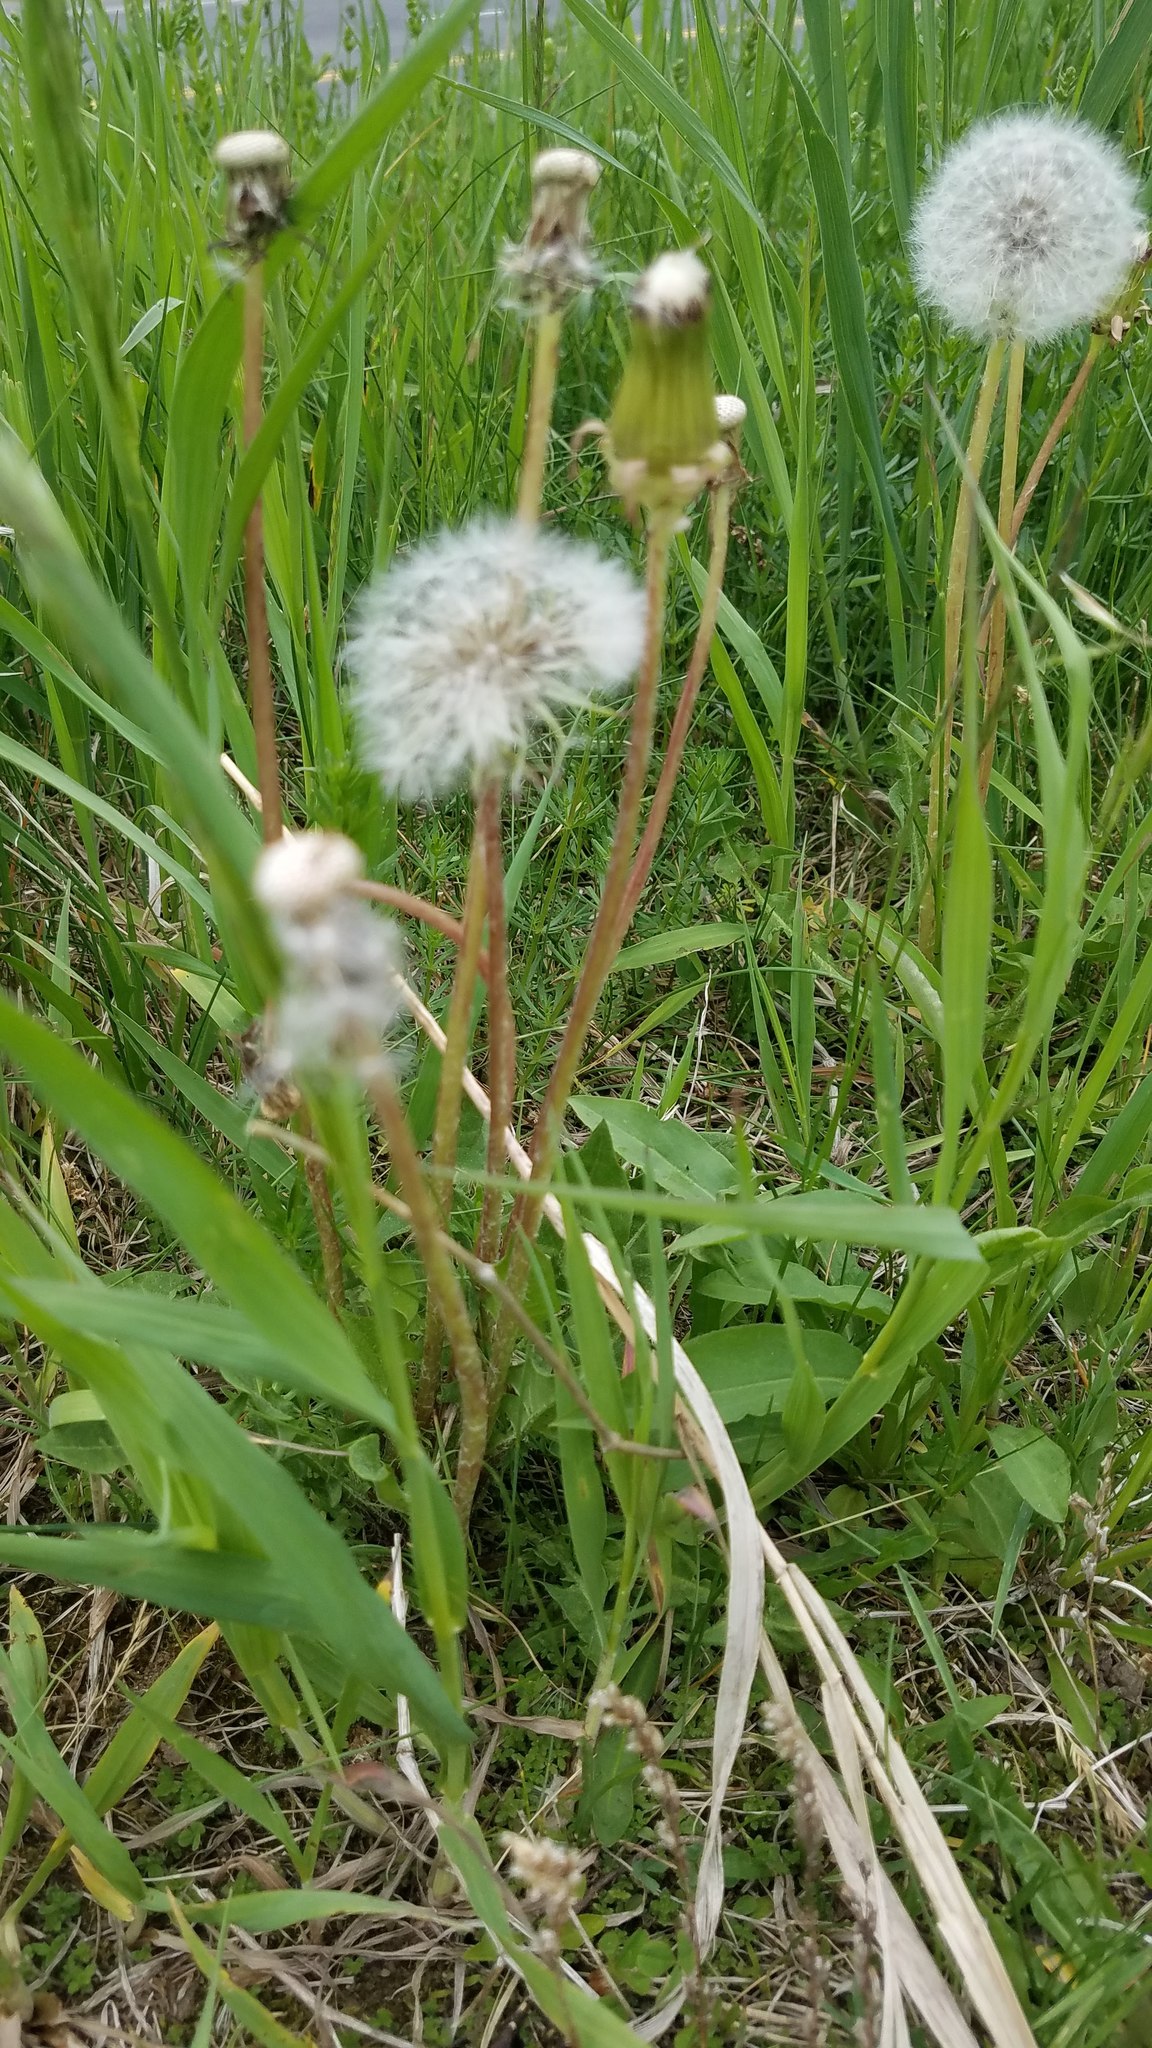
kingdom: Plantae
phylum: Tracheophyta
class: Magnoliopsida
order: Asterales
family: Asteraceae
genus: Taraxacum
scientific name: Taraxacum officinale
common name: Common dandelion
